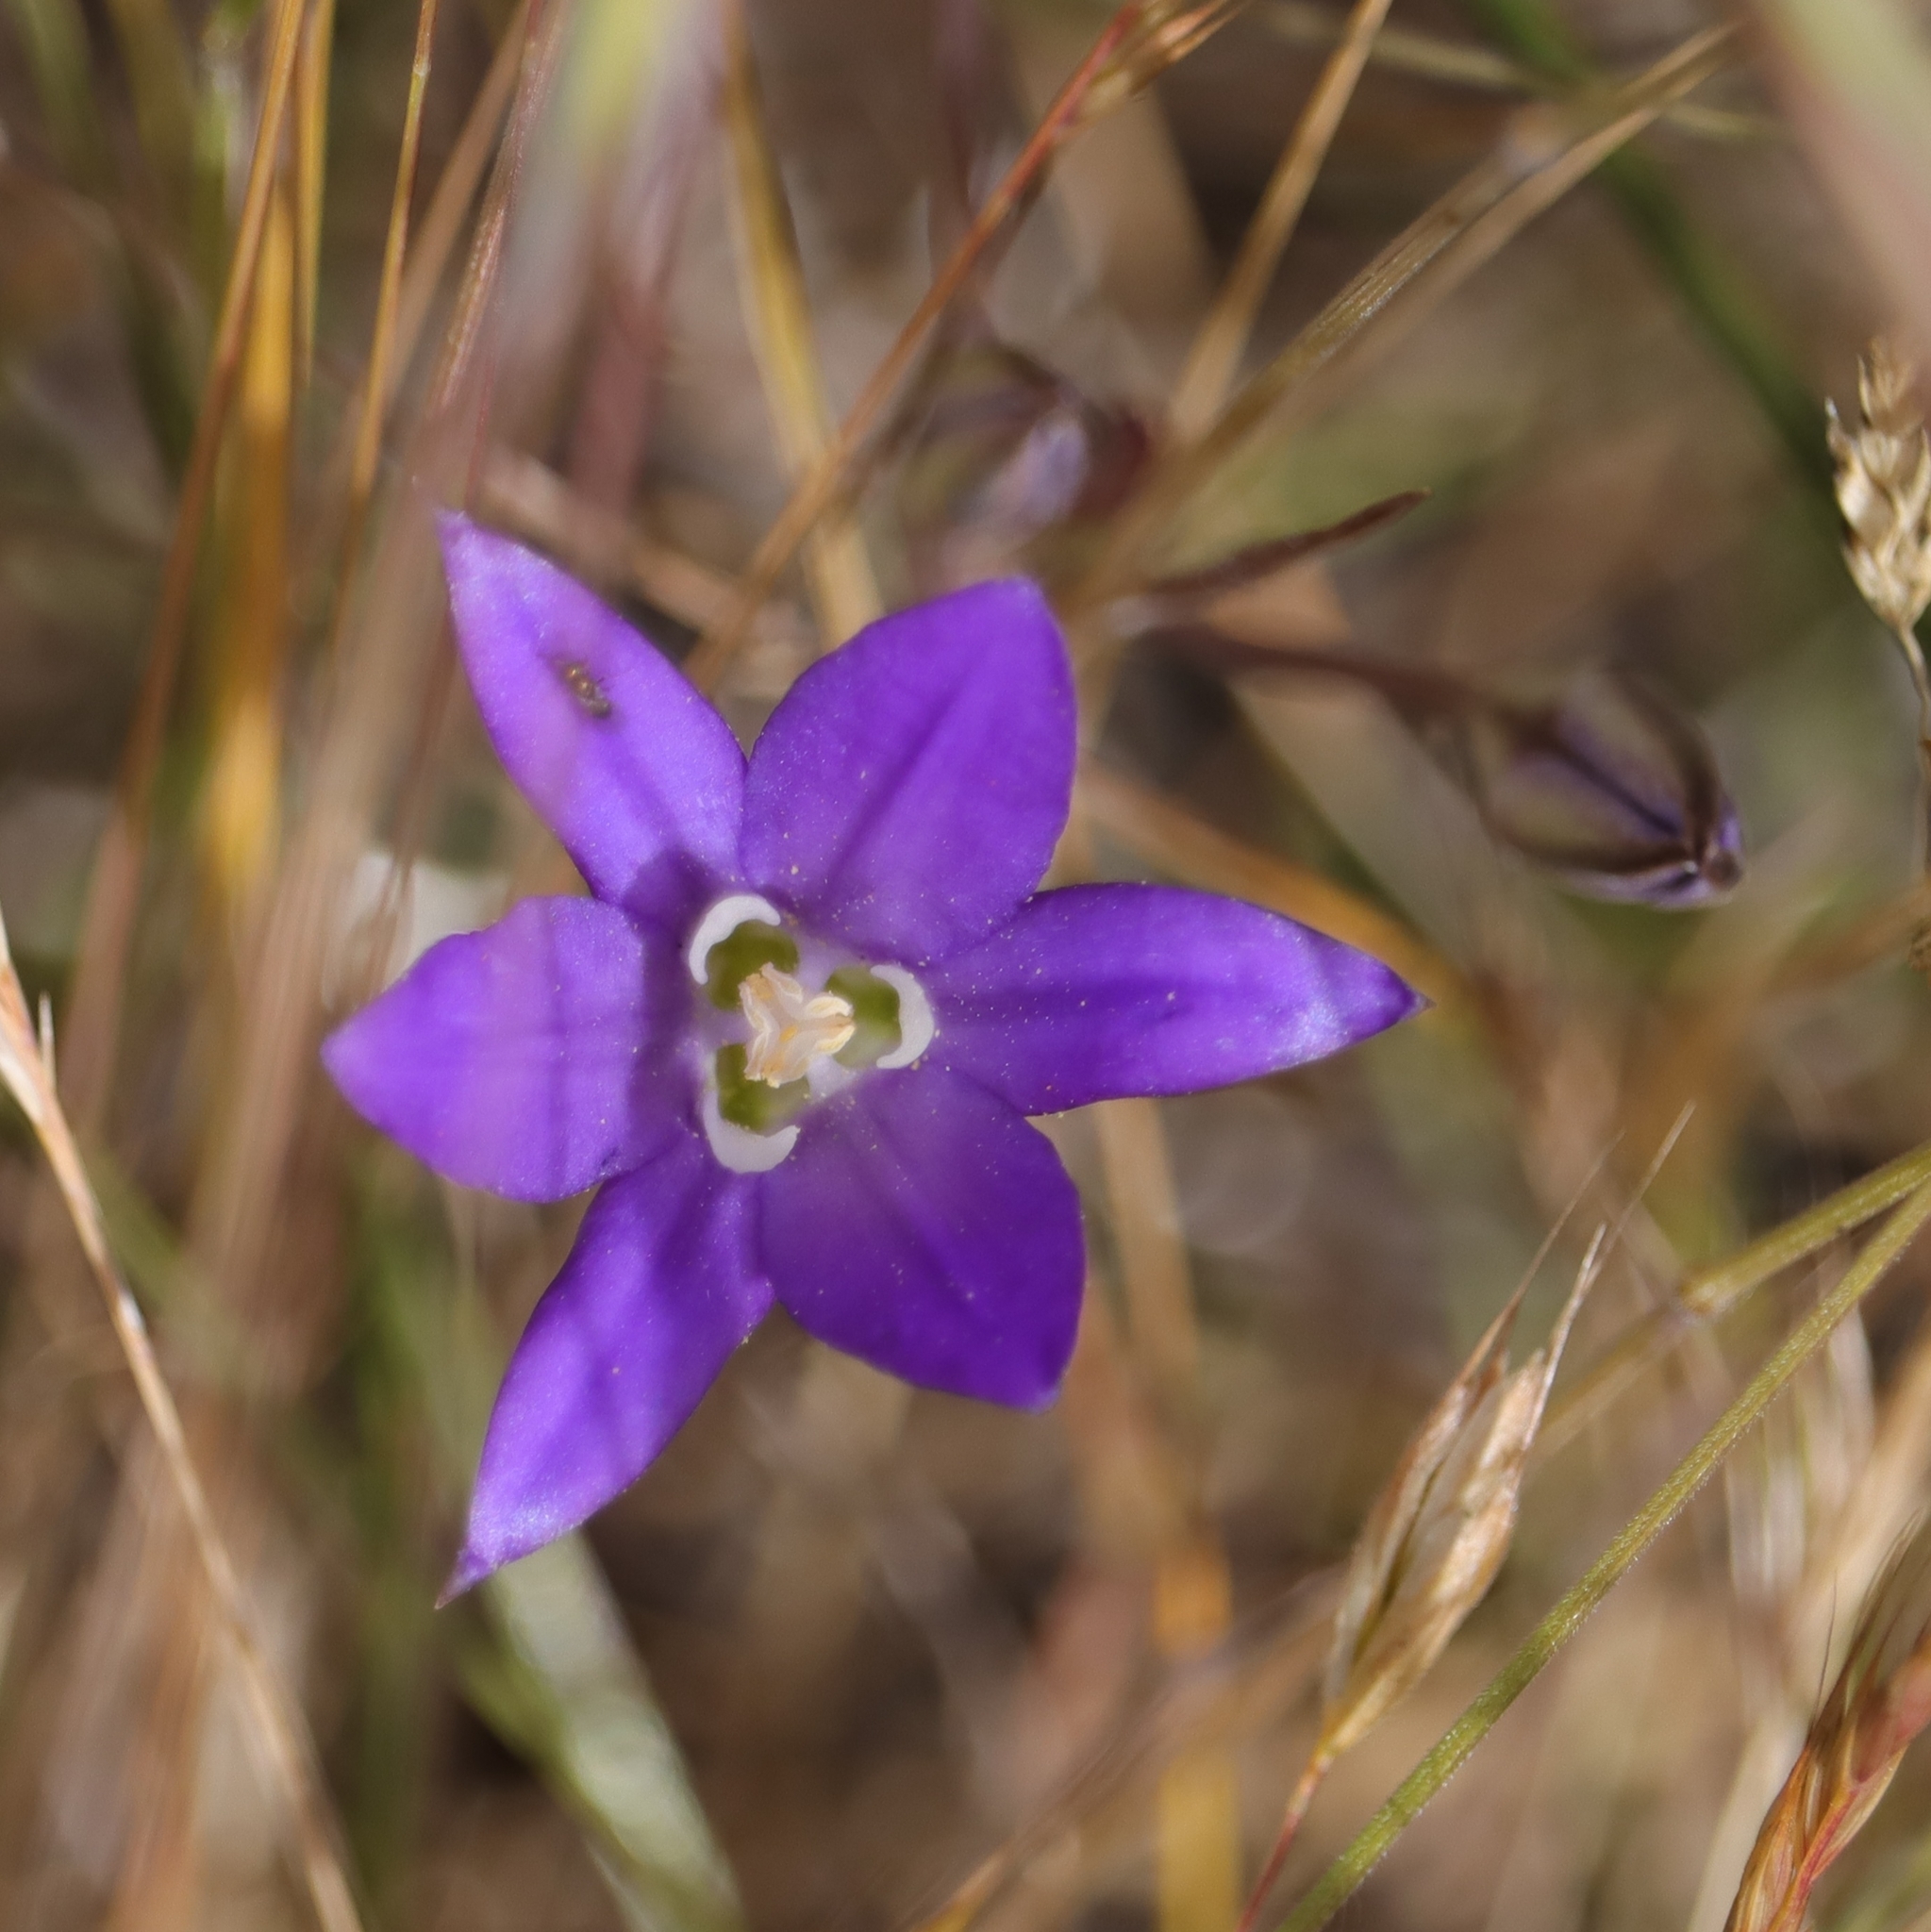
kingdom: Plantae
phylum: Tracheophyta
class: Liliopsida
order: Asparagales
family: Asparagaceae
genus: Brodiaea
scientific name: Brodiaea coronaria
